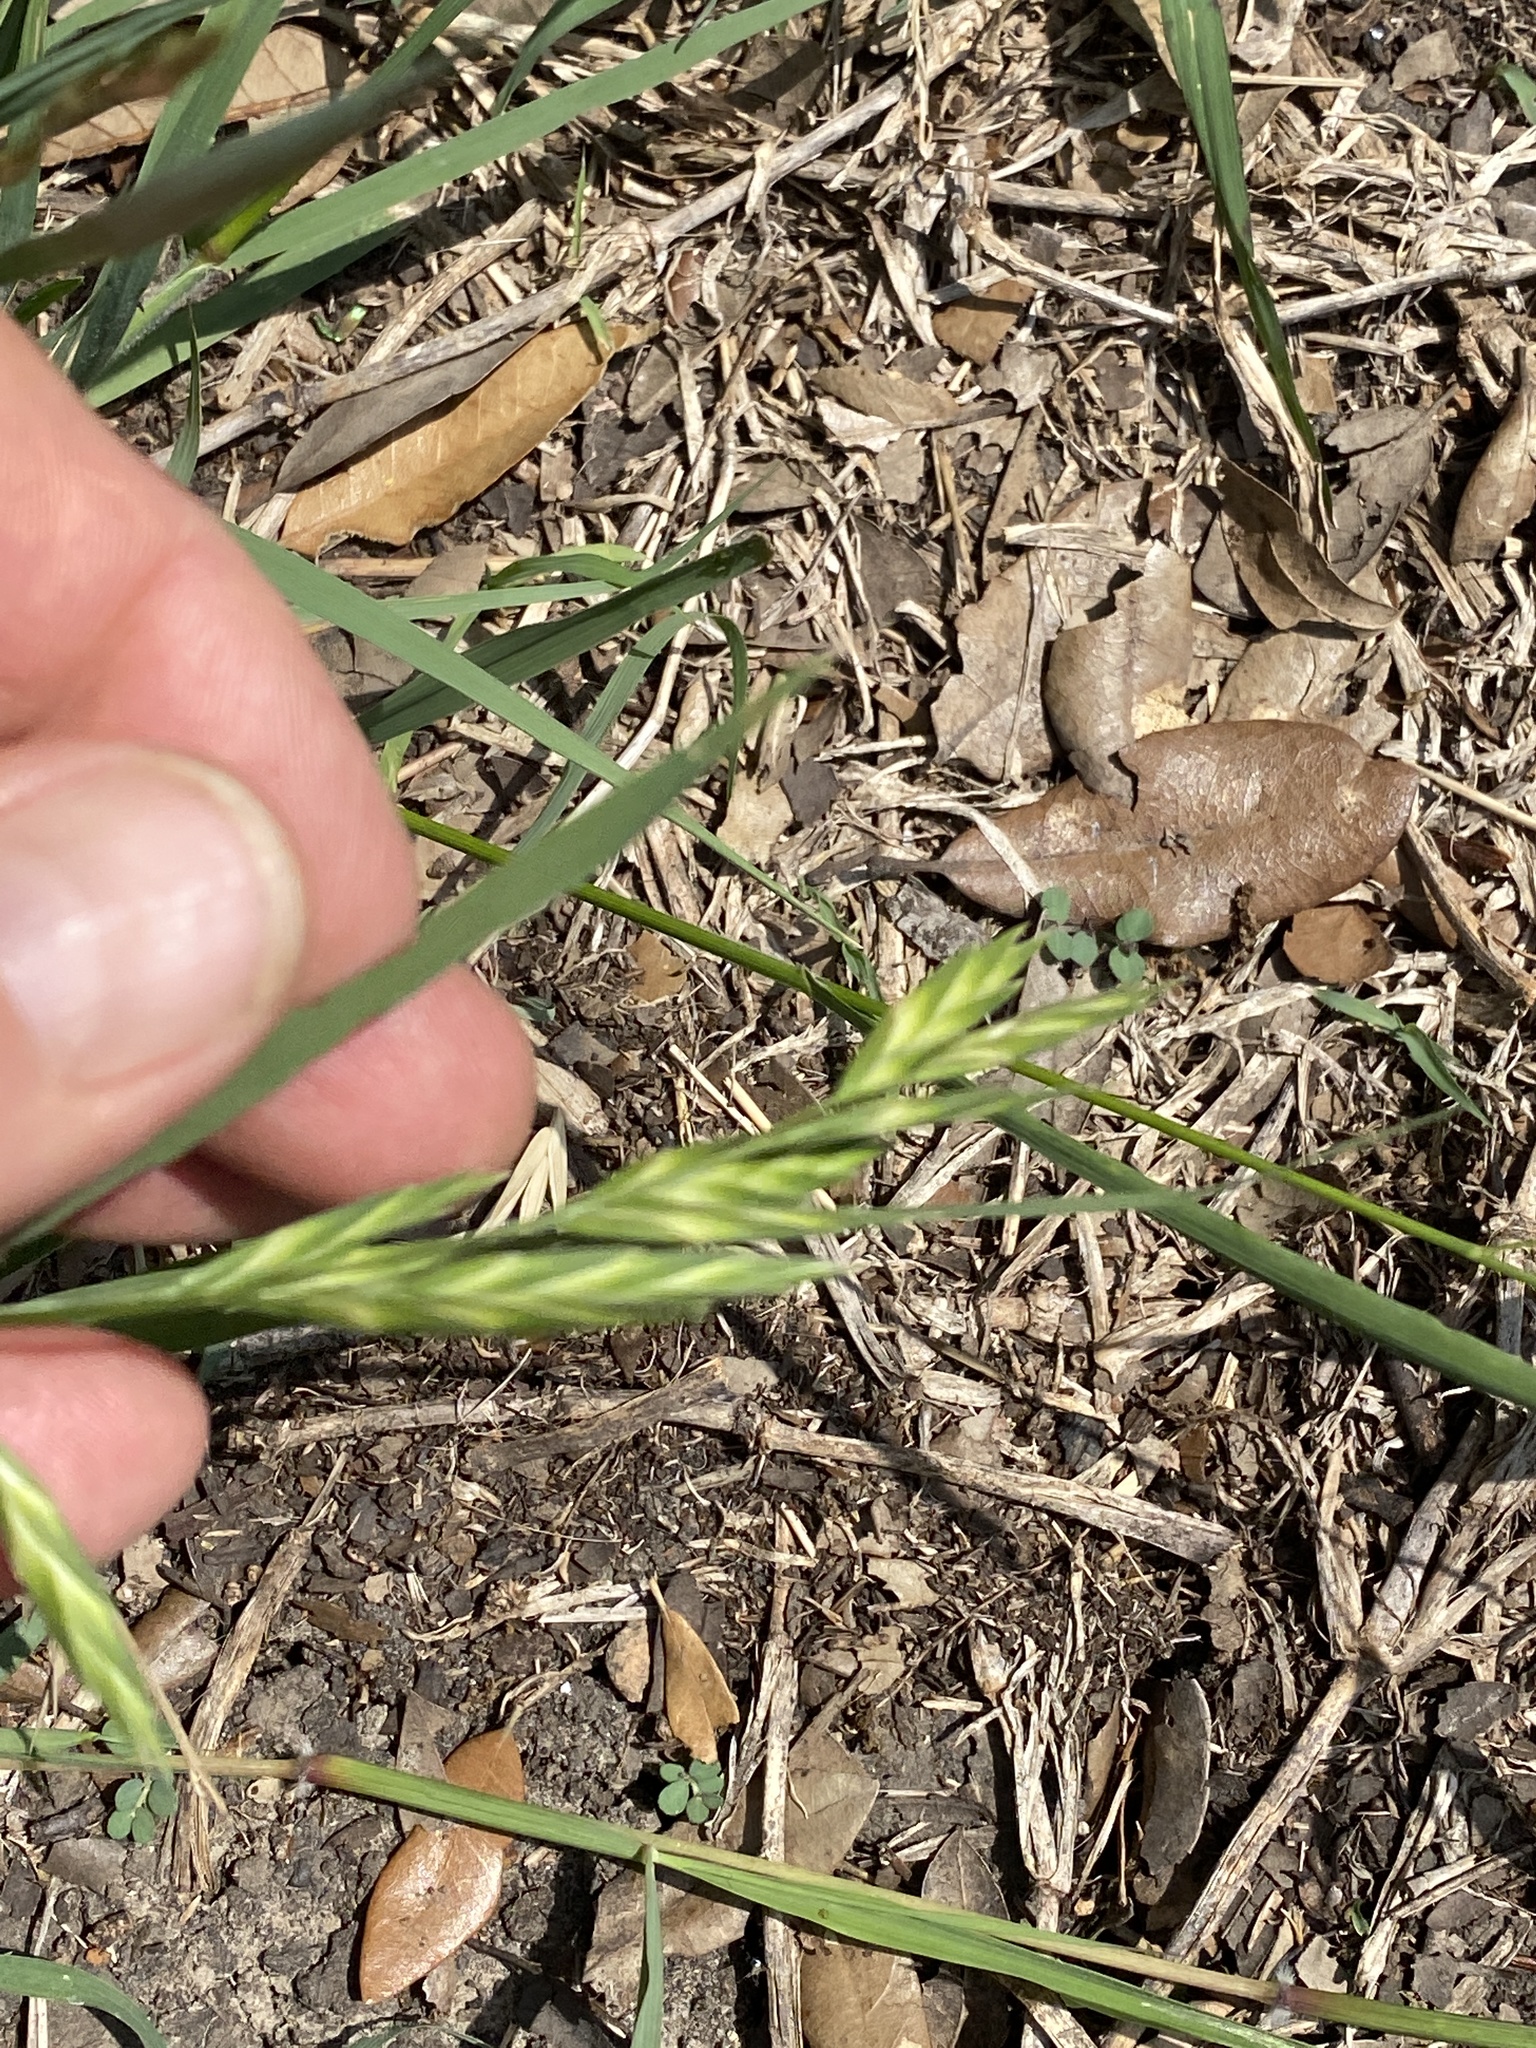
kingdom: Plantae
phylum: Tracheophyta
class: Liliopsida
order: Poales
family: Poaceae
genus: Bromus
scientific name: Bromus catharticus
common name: Rescuegrass
